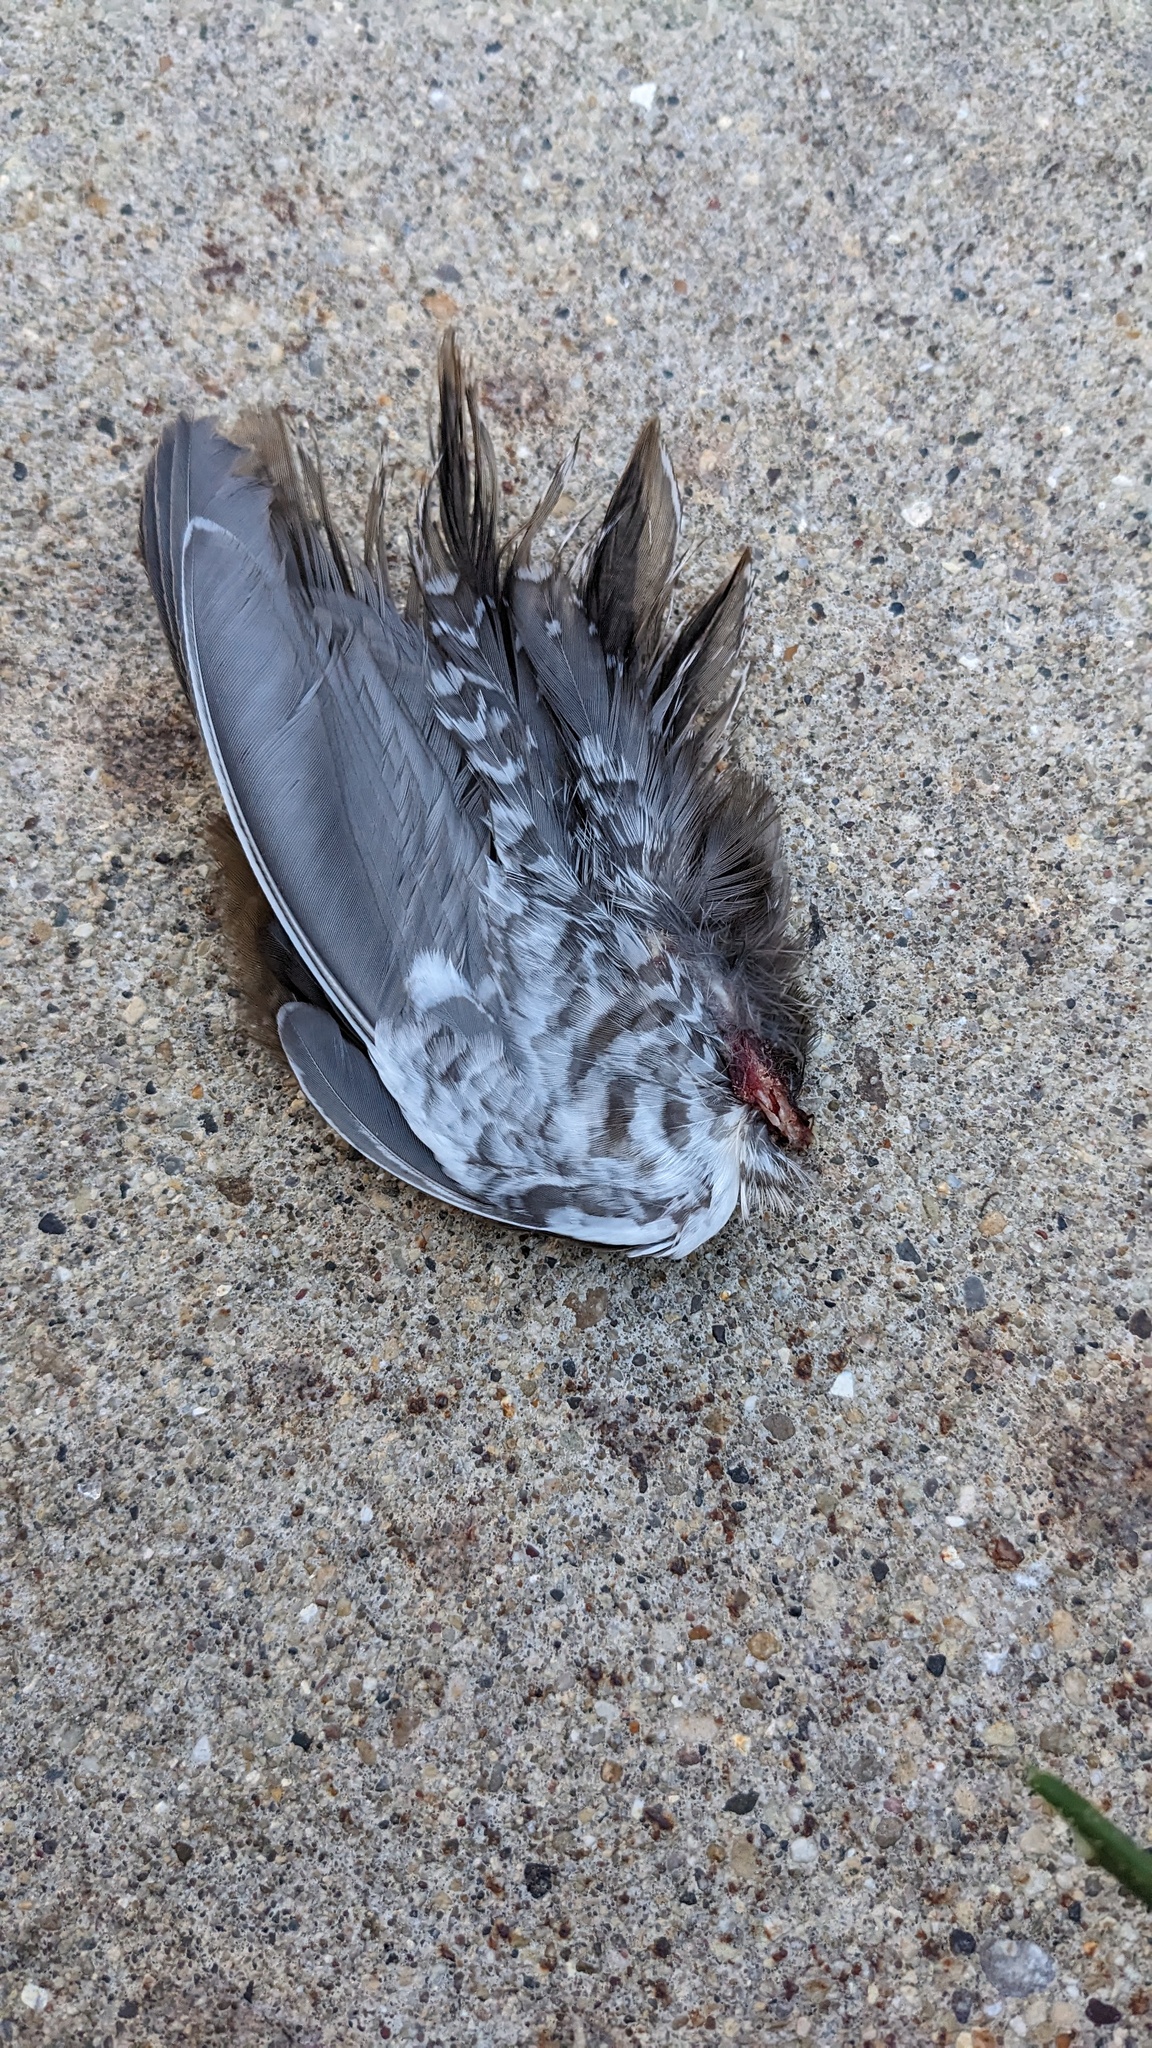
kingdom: Animalia
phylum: Chordata
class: Aves
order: Gruiformes
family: Rallidae
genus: Porzana
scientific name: Porzana carolina
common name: Sora
